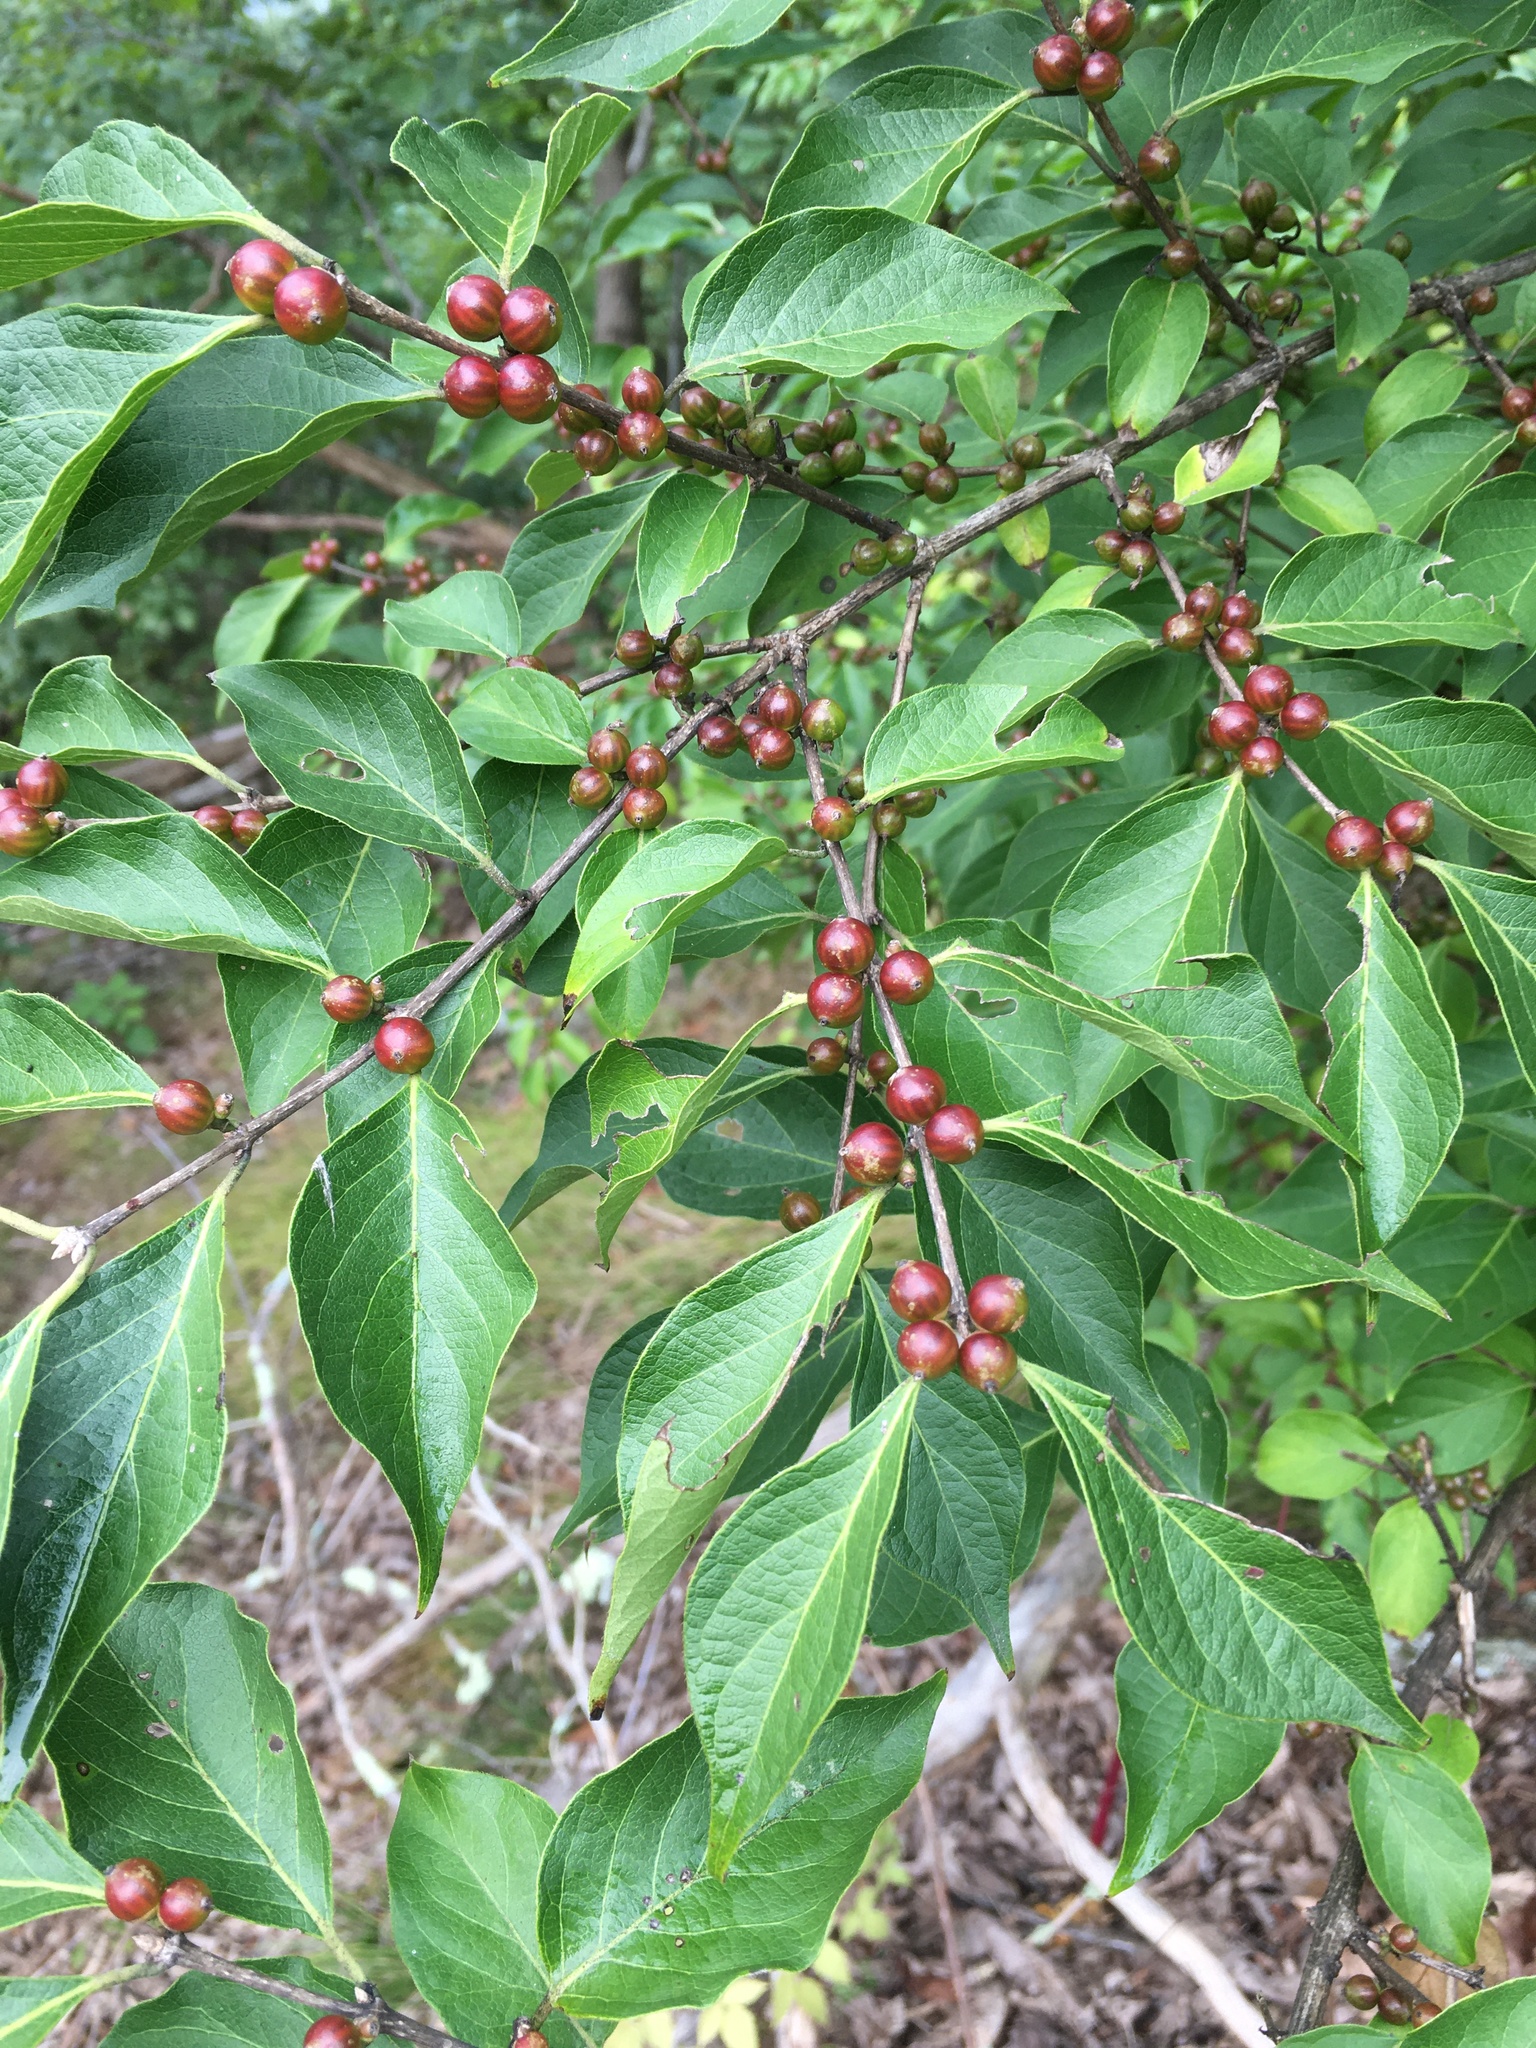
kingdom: Plantae
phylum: Tracheophyta
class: Magnoliopsida
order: Dipsacales
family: Caprifoliaceae
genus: Lonicera
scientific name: Lonicera maackii
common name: Amur honeysuckle
